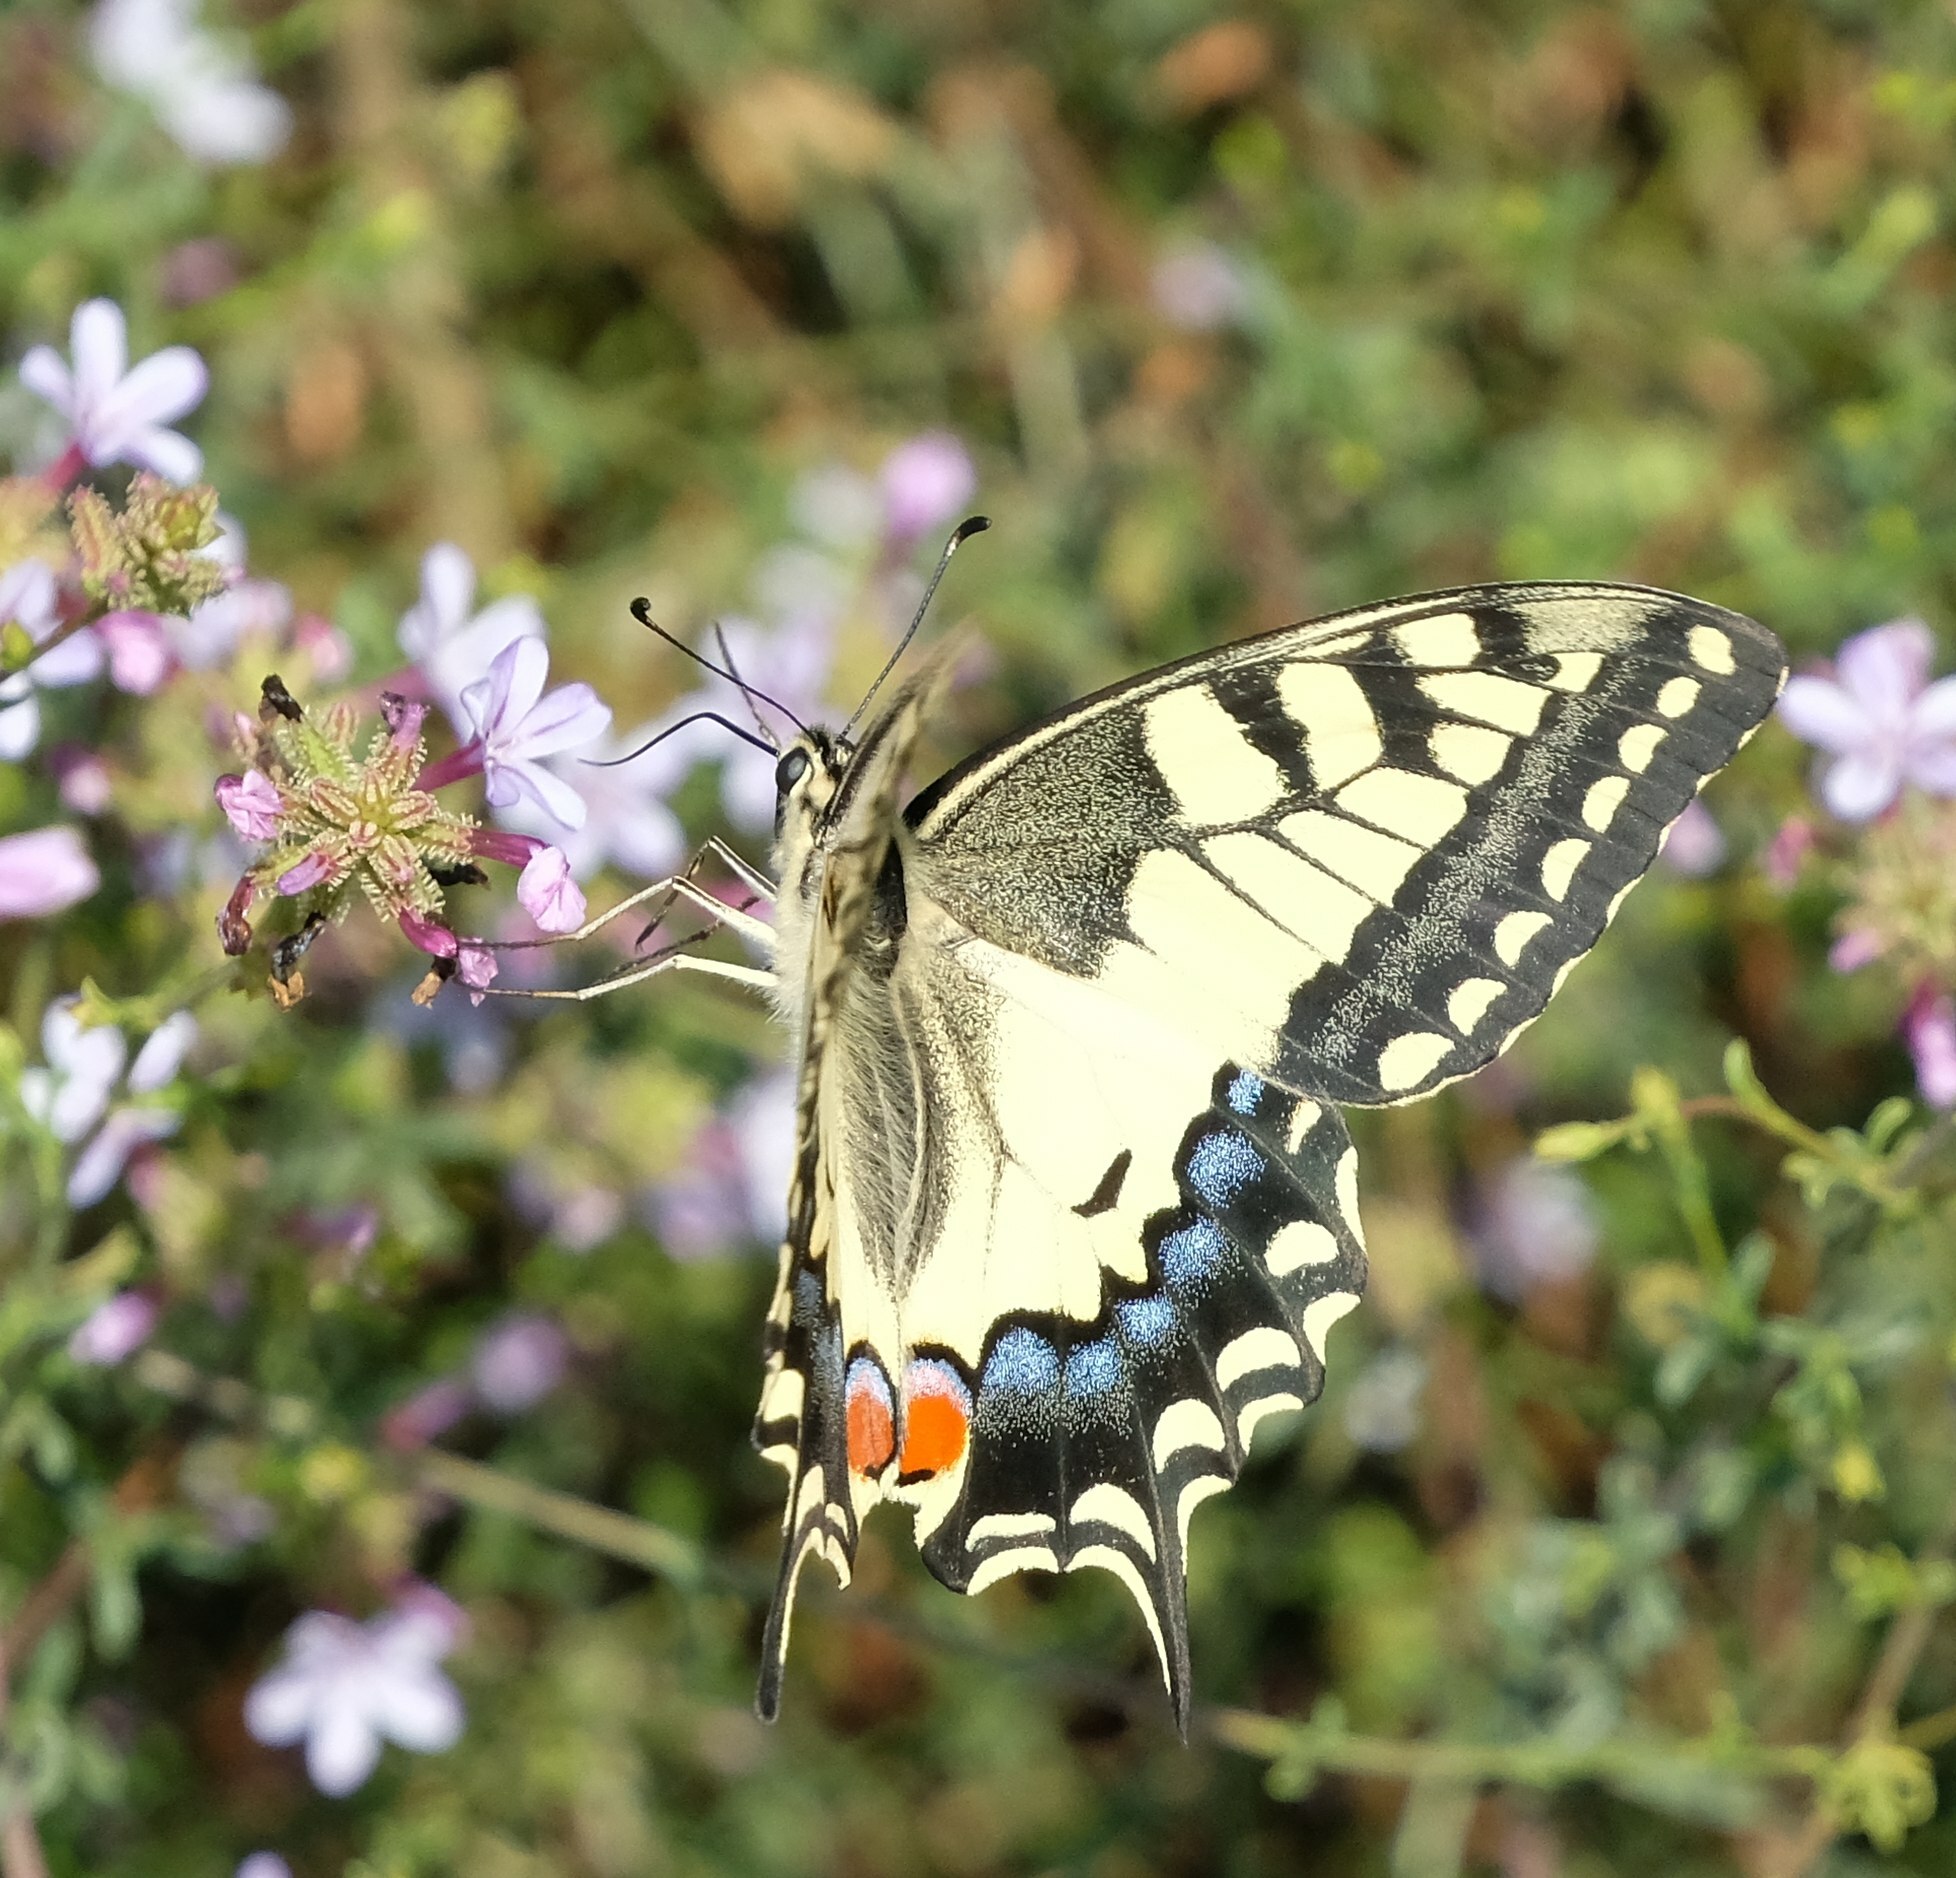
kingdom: Animalia
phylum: Arthropoda
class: Insecta
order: Lepidoptera
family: Papilionidae
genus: Papilio
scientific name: Papilio machaon
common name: Swallowtail
